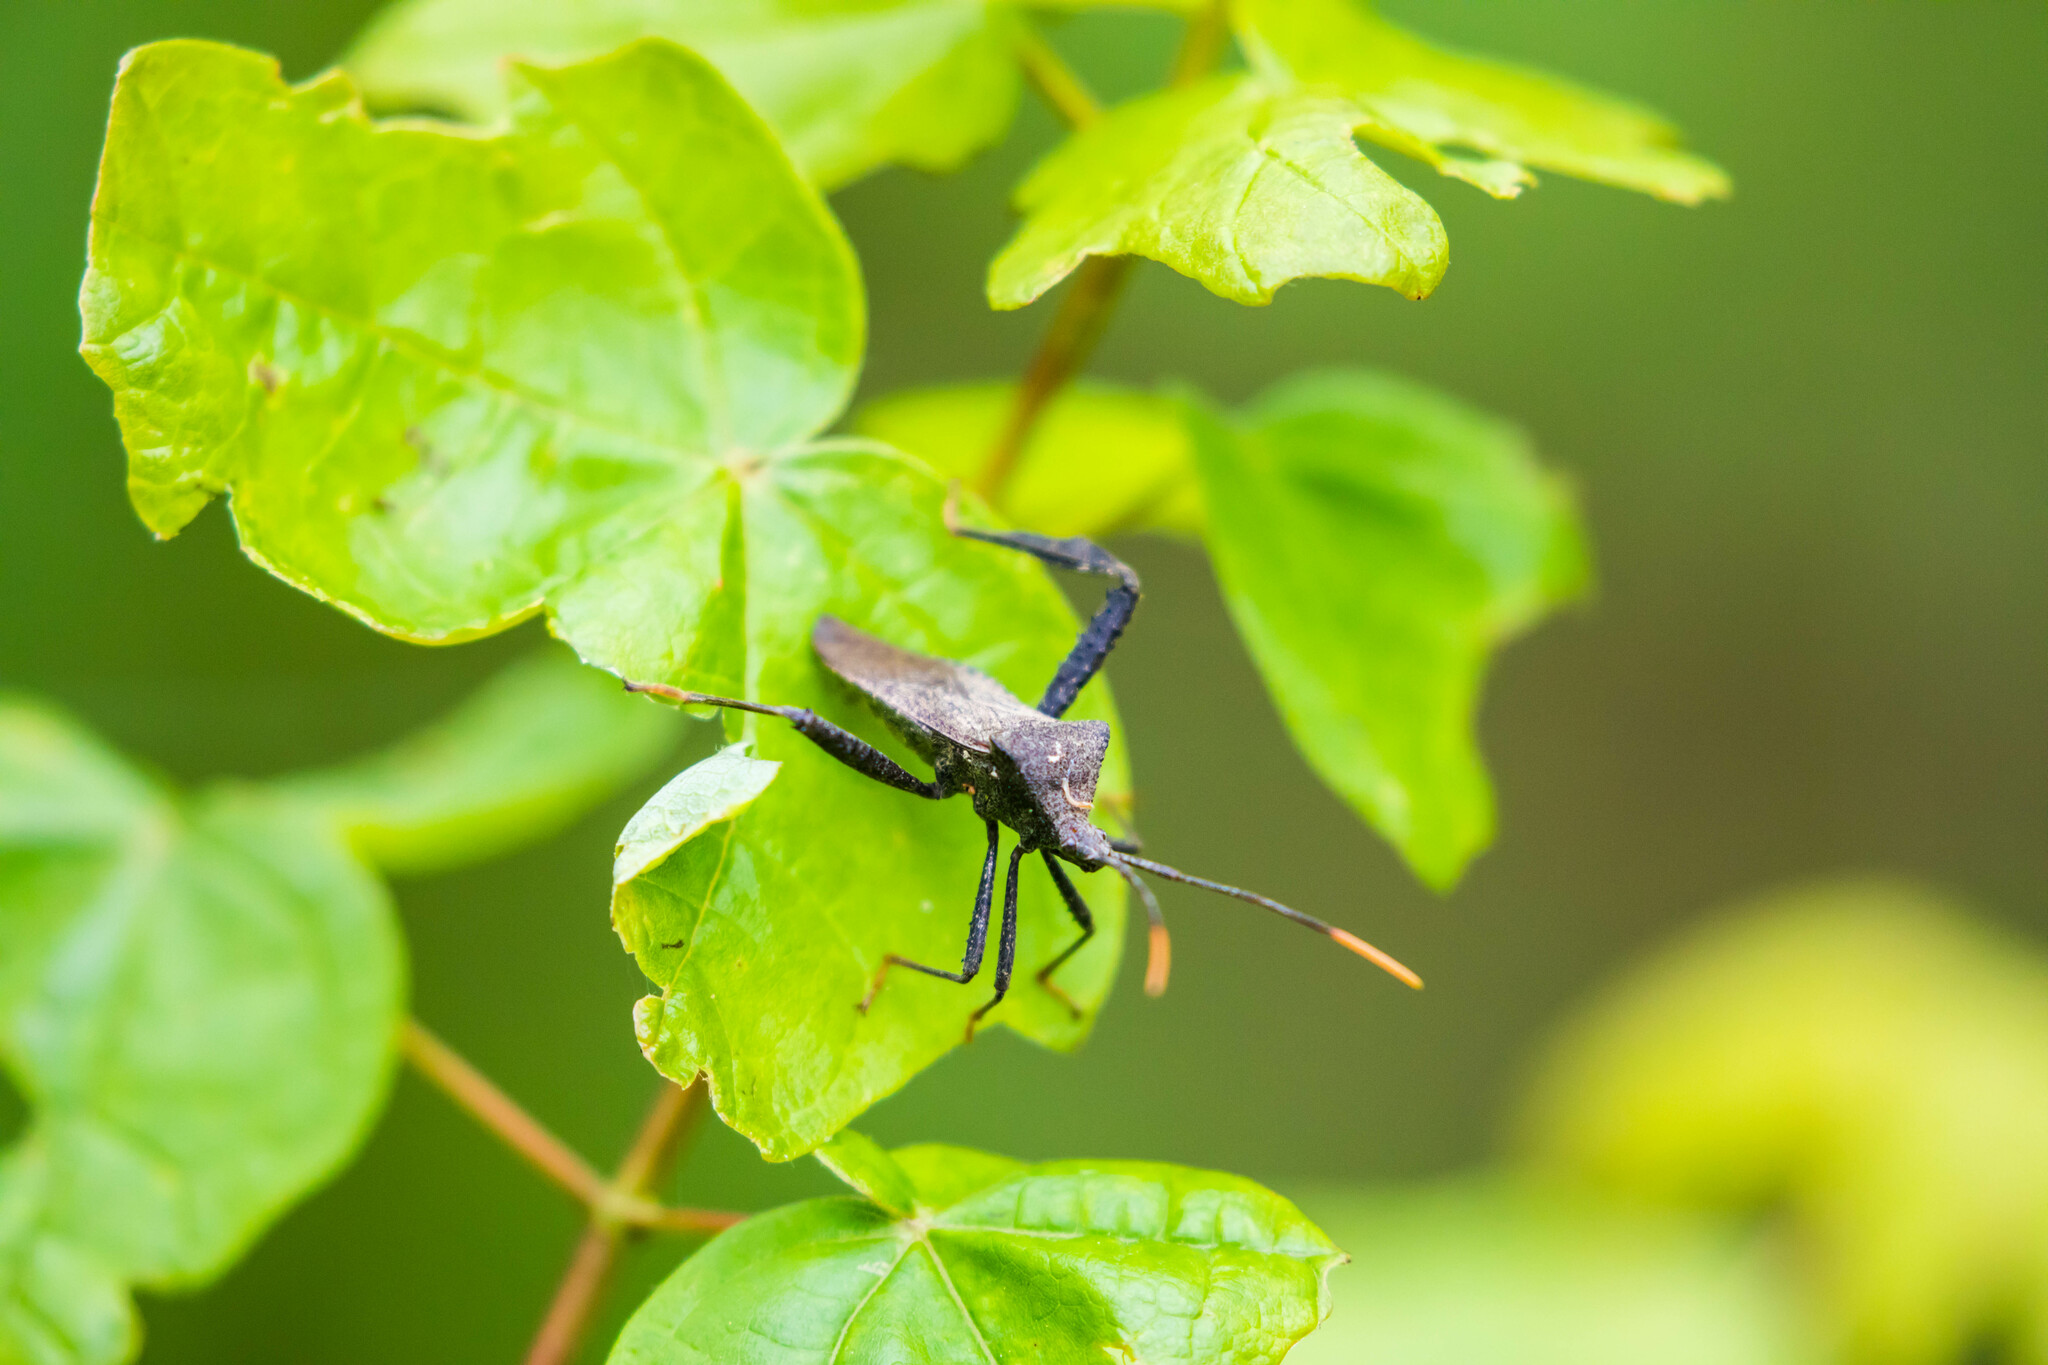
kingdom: Animalia
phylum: Arthropoda
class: Insecta
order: Hemiptera
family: Coreidae
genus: Acanthocephala
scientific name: Acanthocephala terminalis
